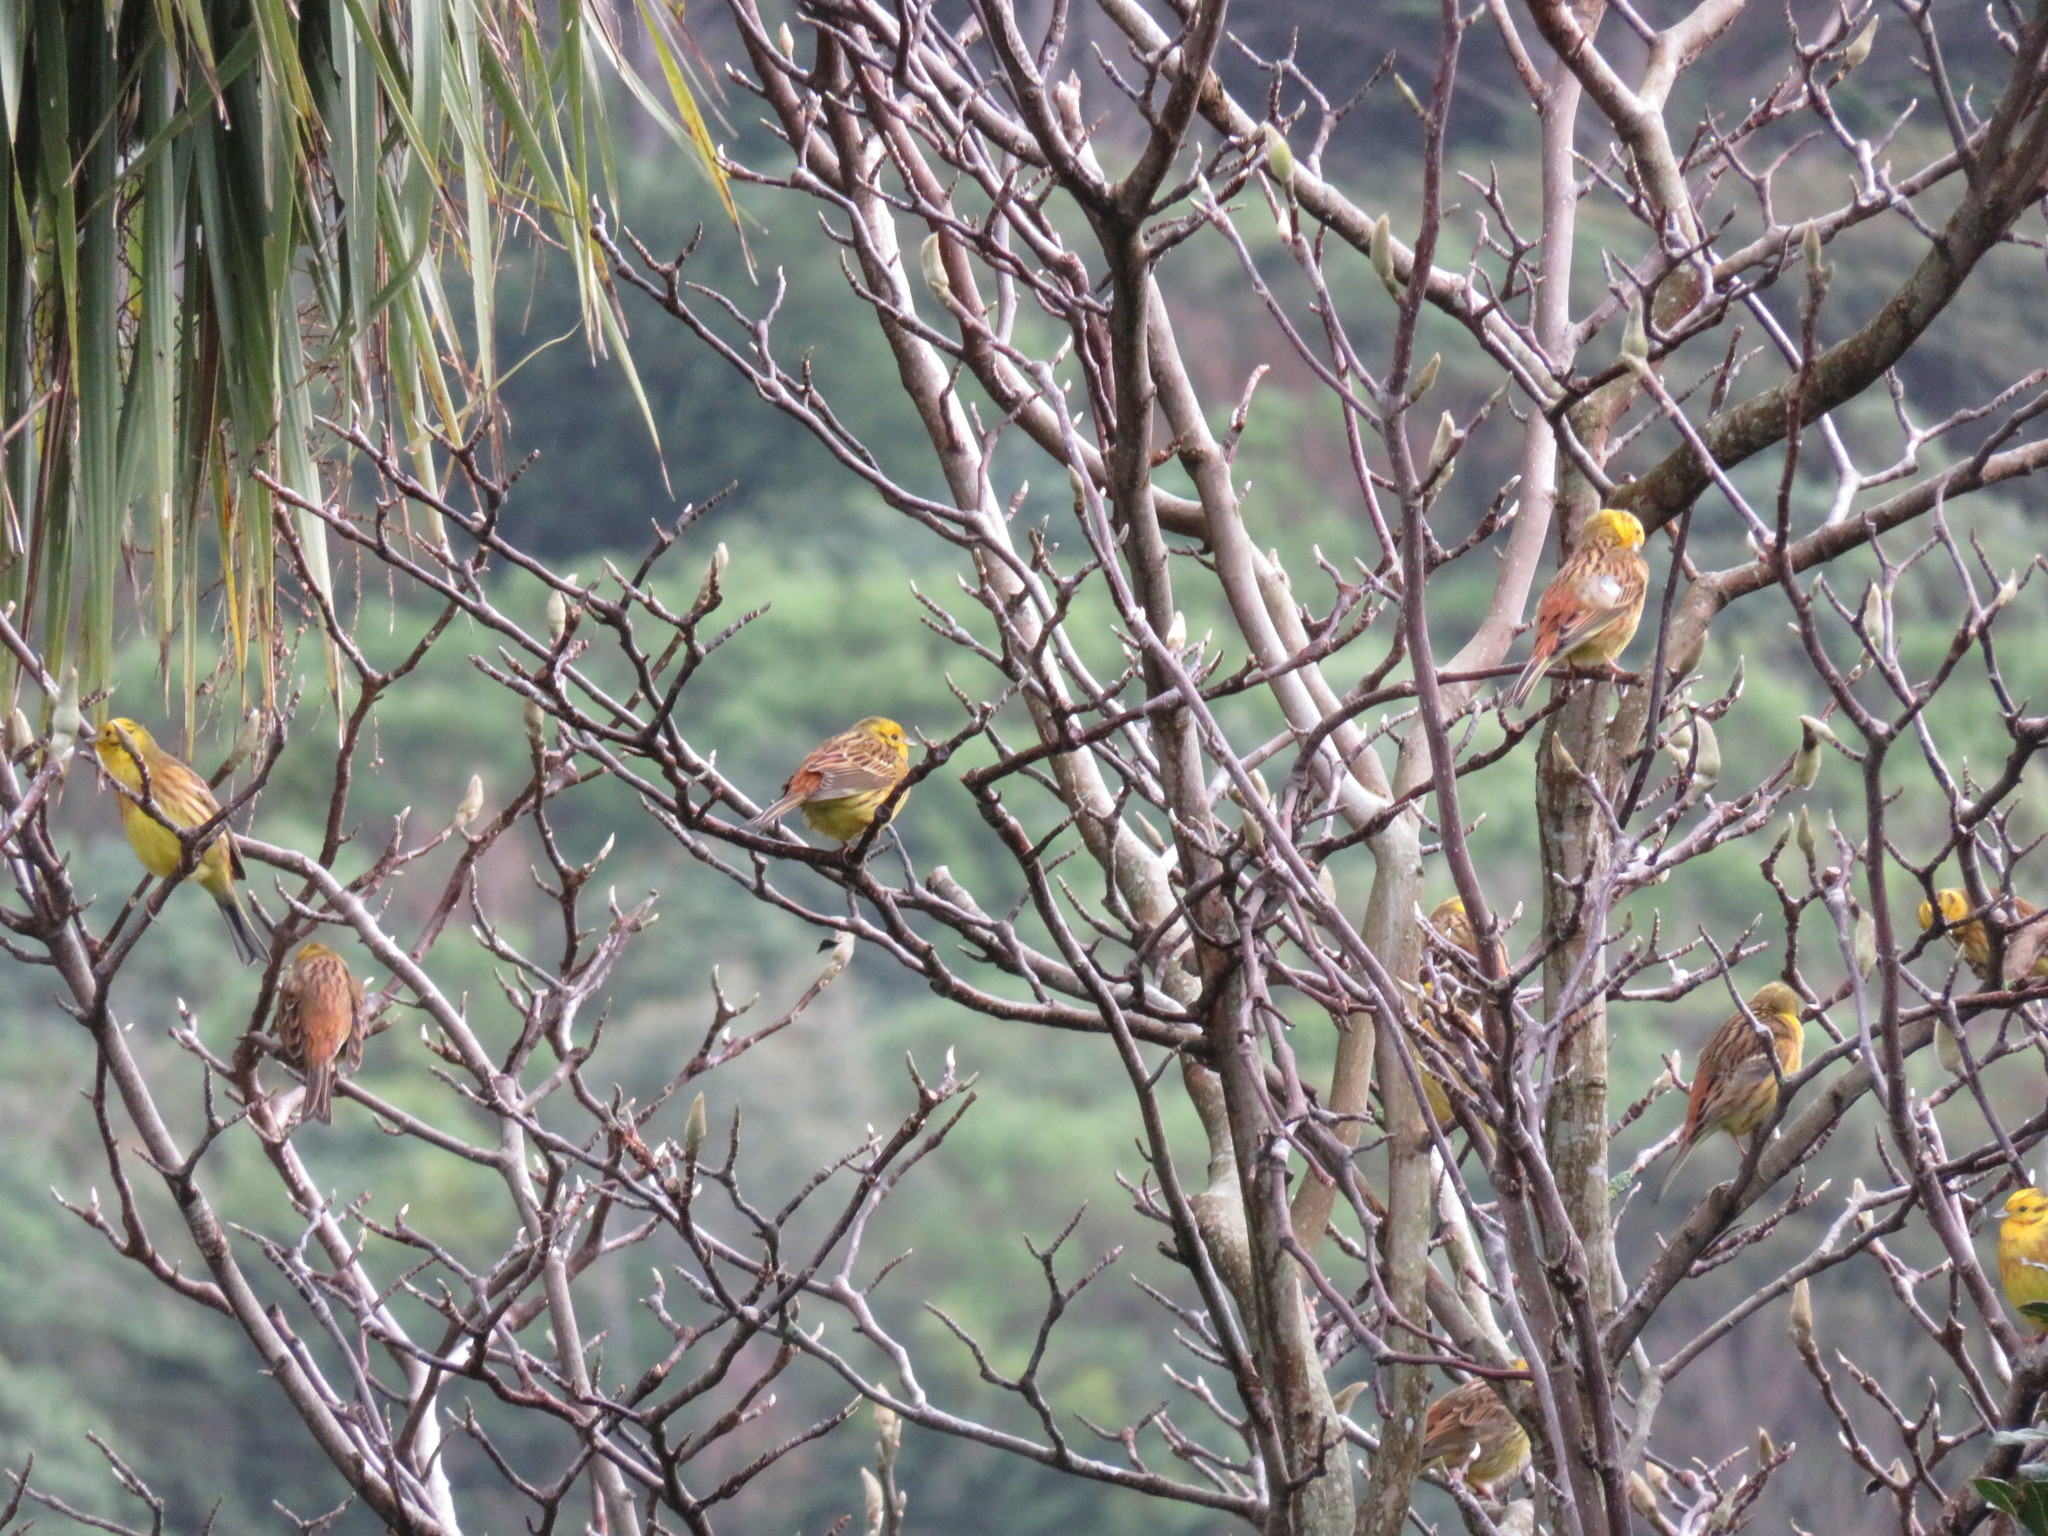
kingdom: Animalia
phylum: Chordata
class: Aves
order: Passeriformes
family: Emberizidae
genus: Emberiza
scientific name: Emberiza citrinella
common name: Yellowhammer
